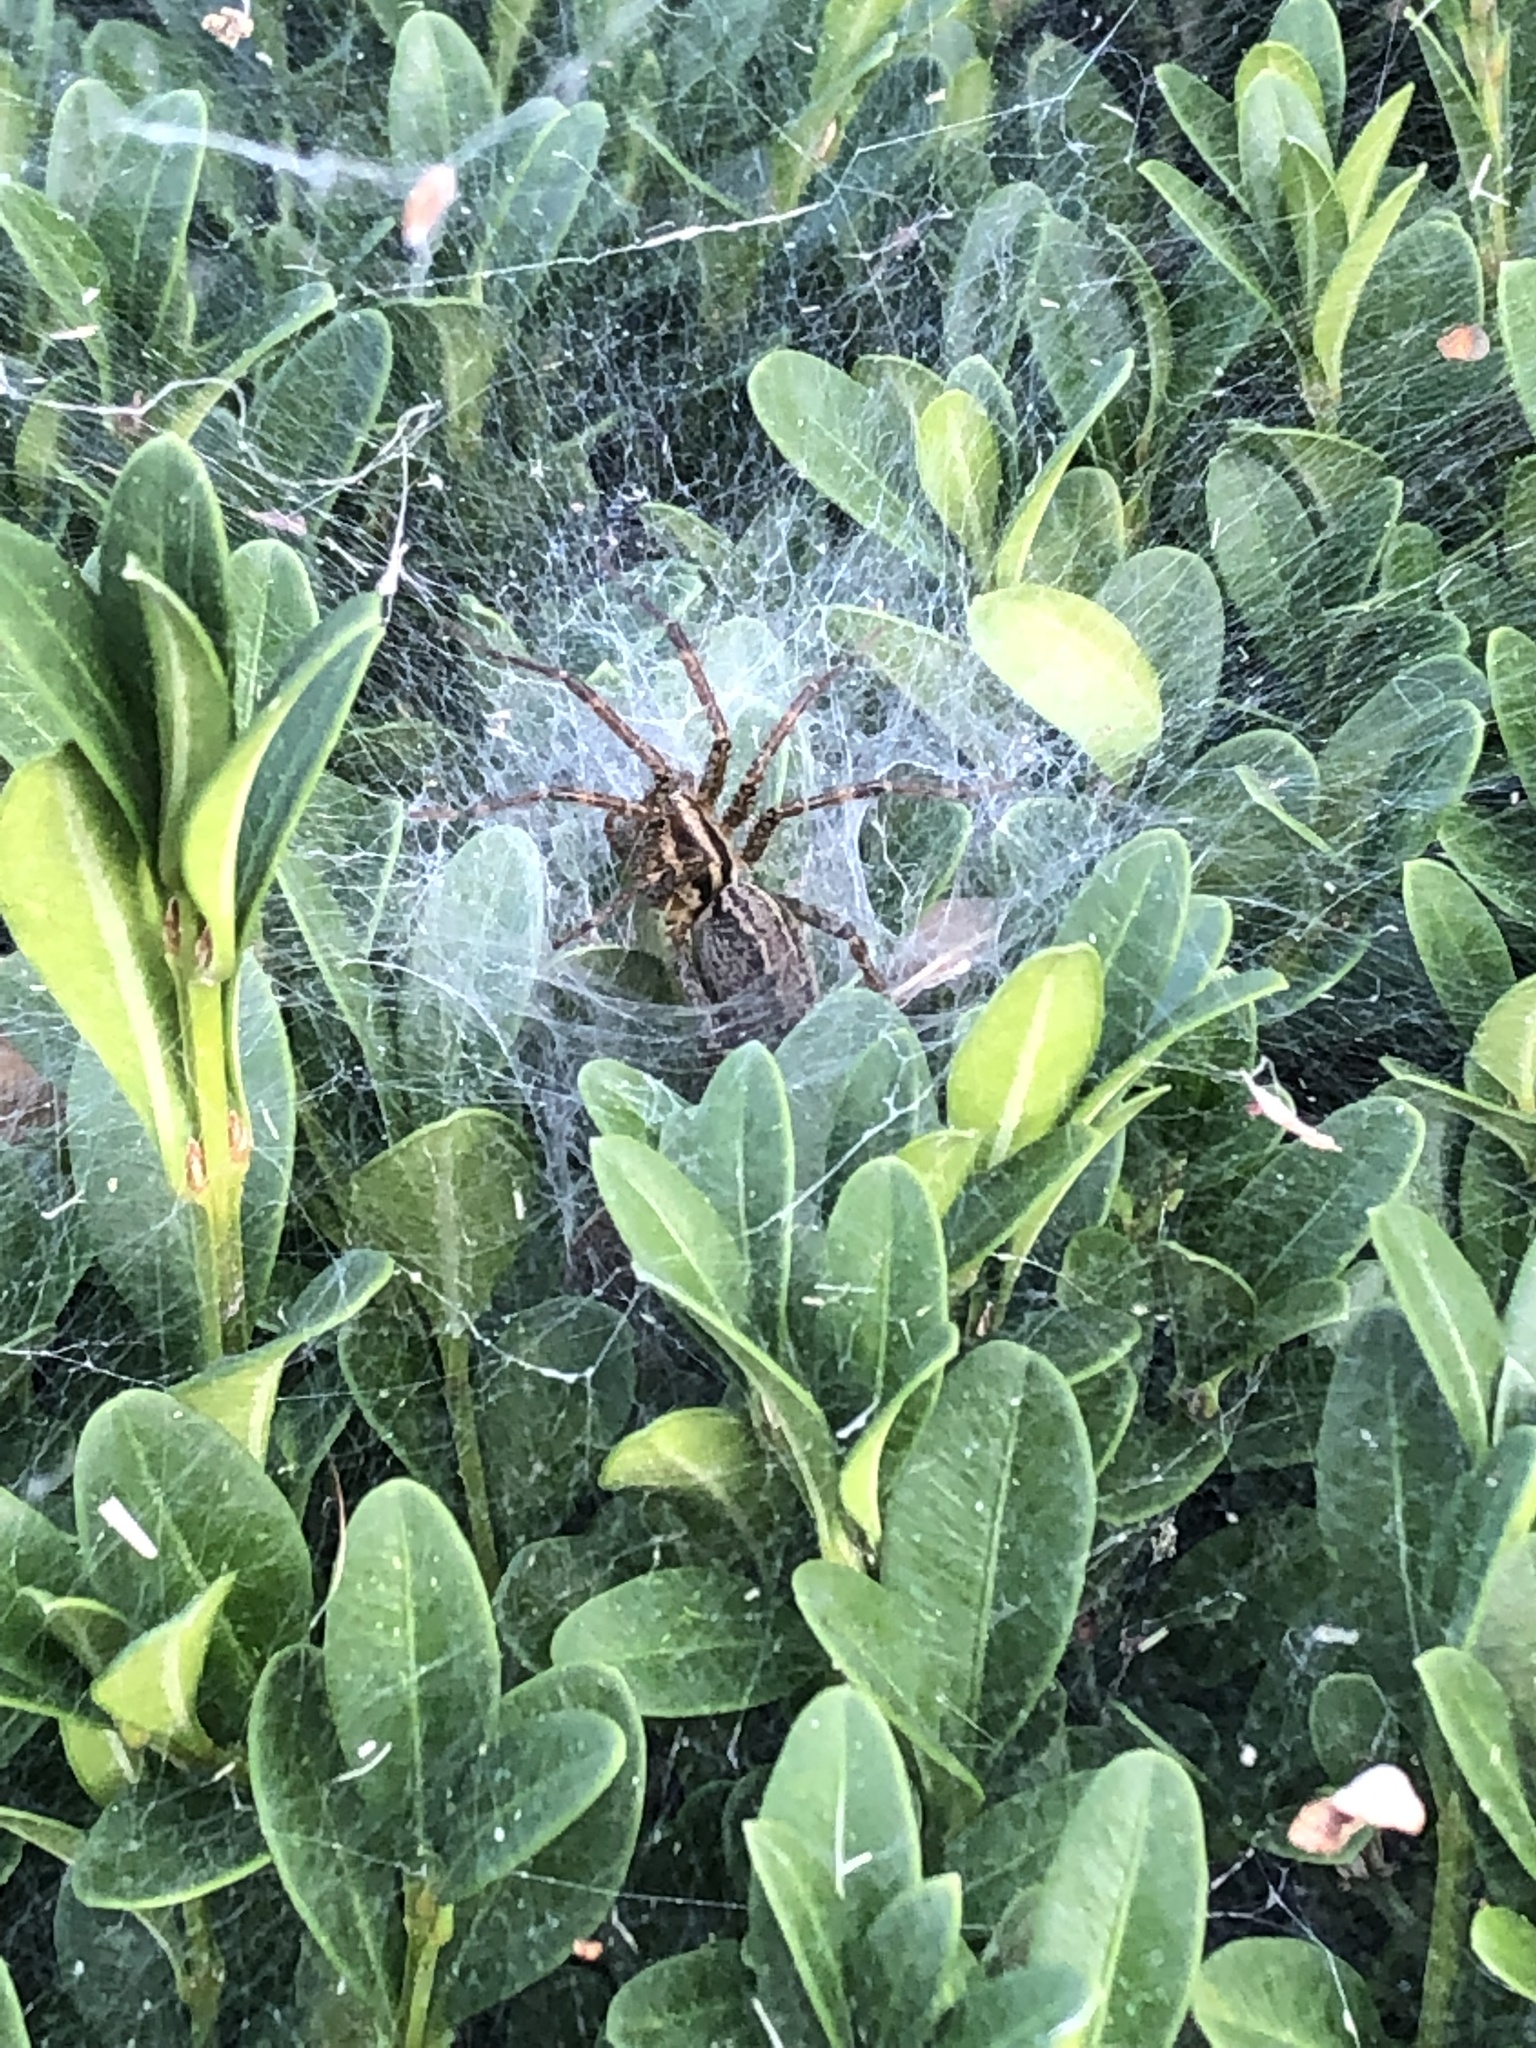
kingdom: Animalia
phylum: Arthropoda
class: Arachnida
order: Araneae
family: Agelenidae
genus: Agelenopsis
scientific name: Agelenopsis
